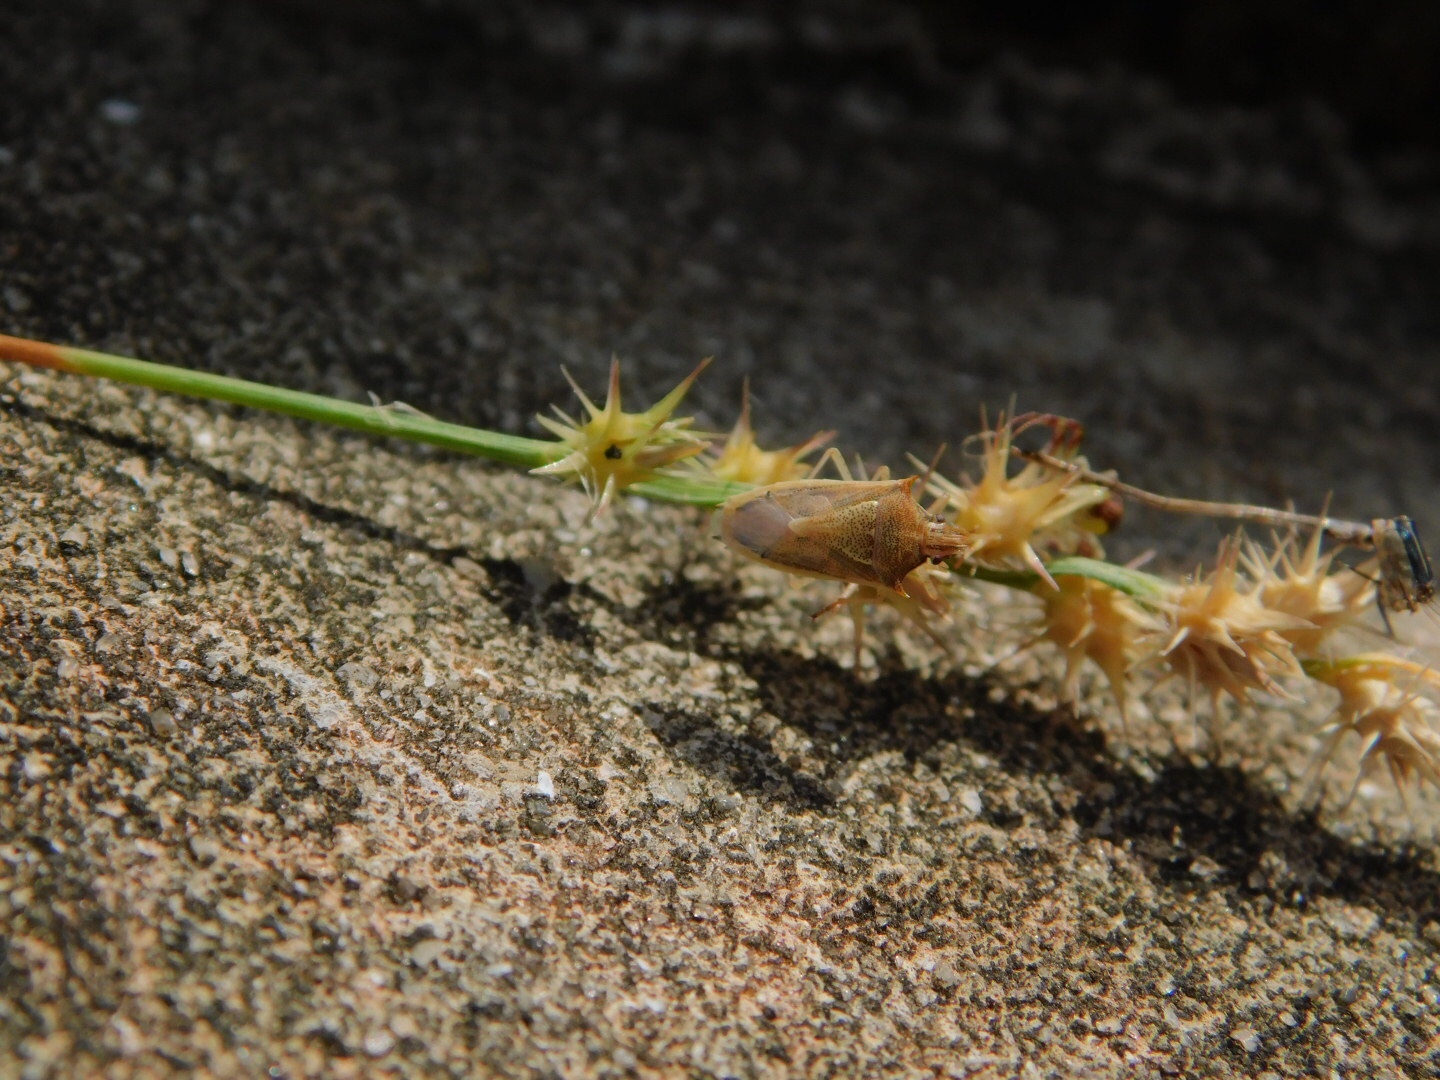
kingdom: Animalia
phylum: Arthropoda
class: Insecta
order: Hemiptera
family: Pentatomidae
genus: Oebalus
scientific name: Oebalus pugnax
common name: Rice stink bug
